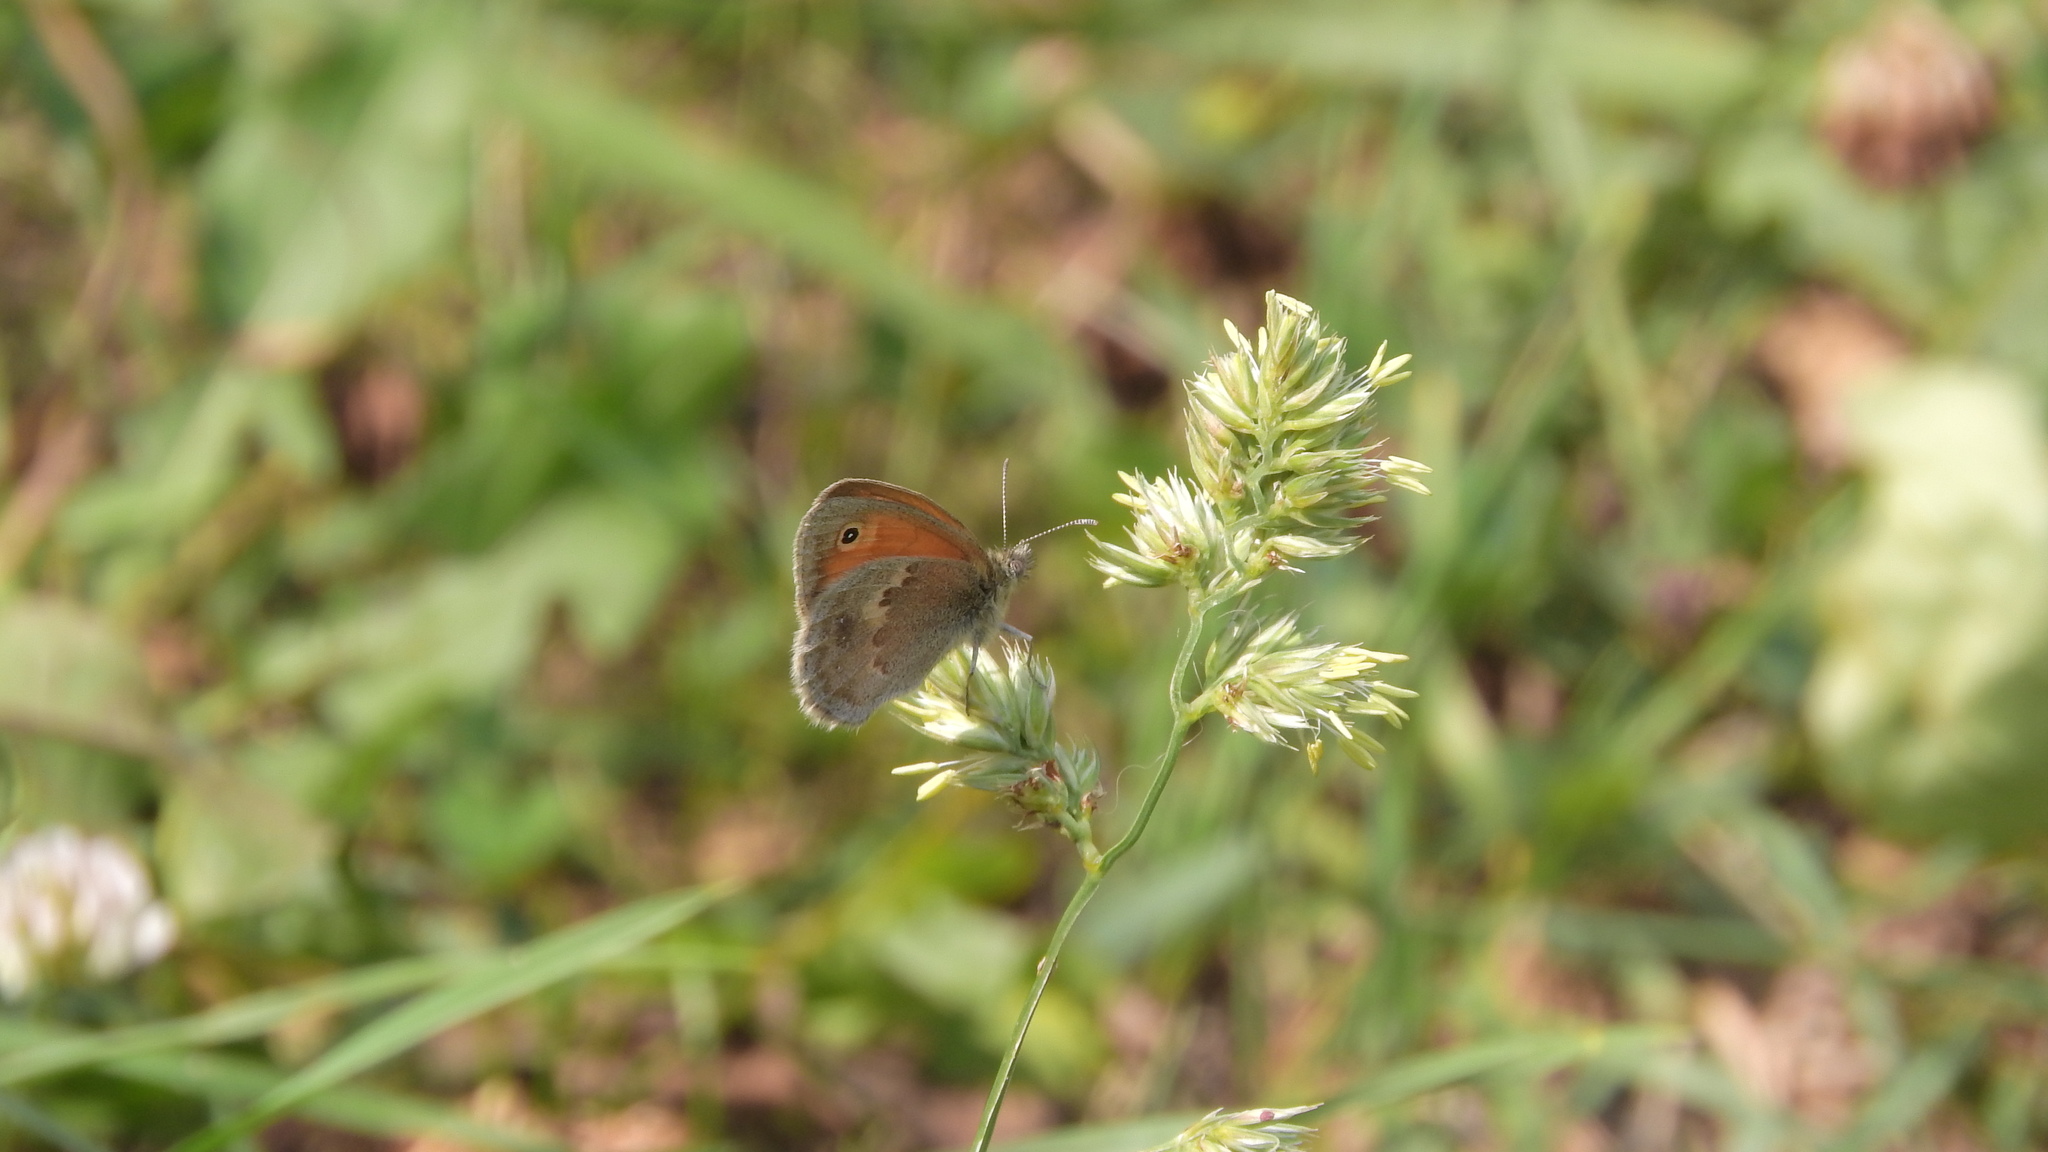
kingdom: Animalia
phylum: Arthropoda
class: Insecta
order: Lepidoptera
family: Nymphalidae
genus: Coenonympha
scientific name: Coenonympha pamphilus
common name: Small heath
